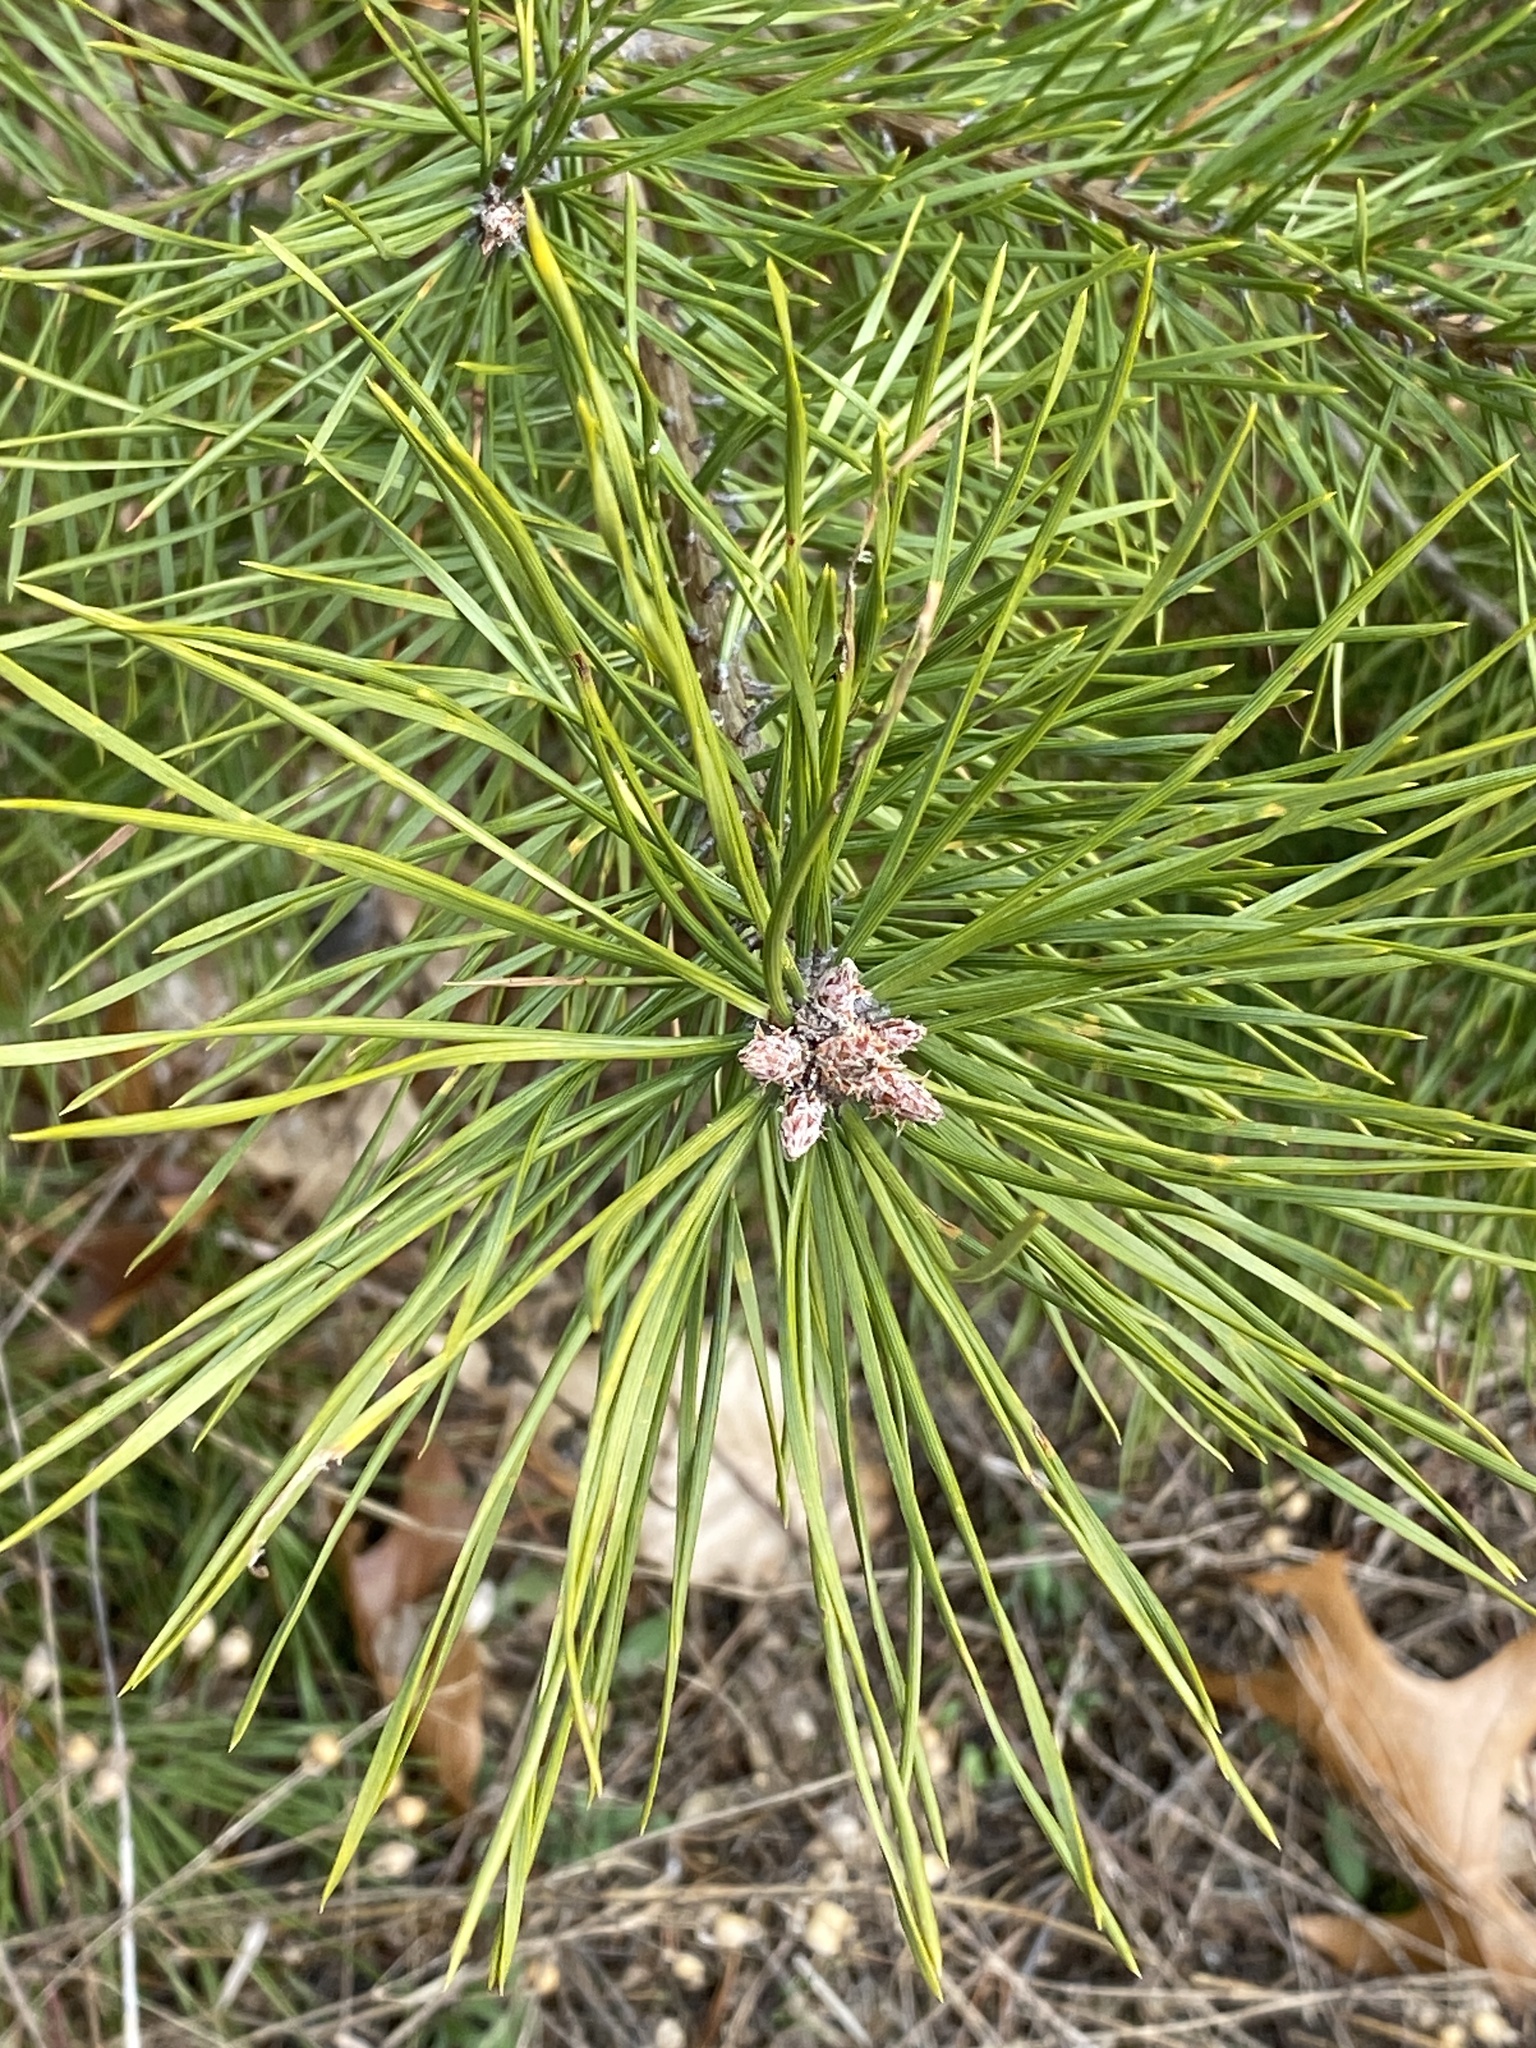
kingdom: Plantae
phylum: Tracheophyta
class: Pinopsida
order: Pinales
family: Pinaceae
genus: Pinus
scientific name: Pinus sylvestris
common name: Scots pine
